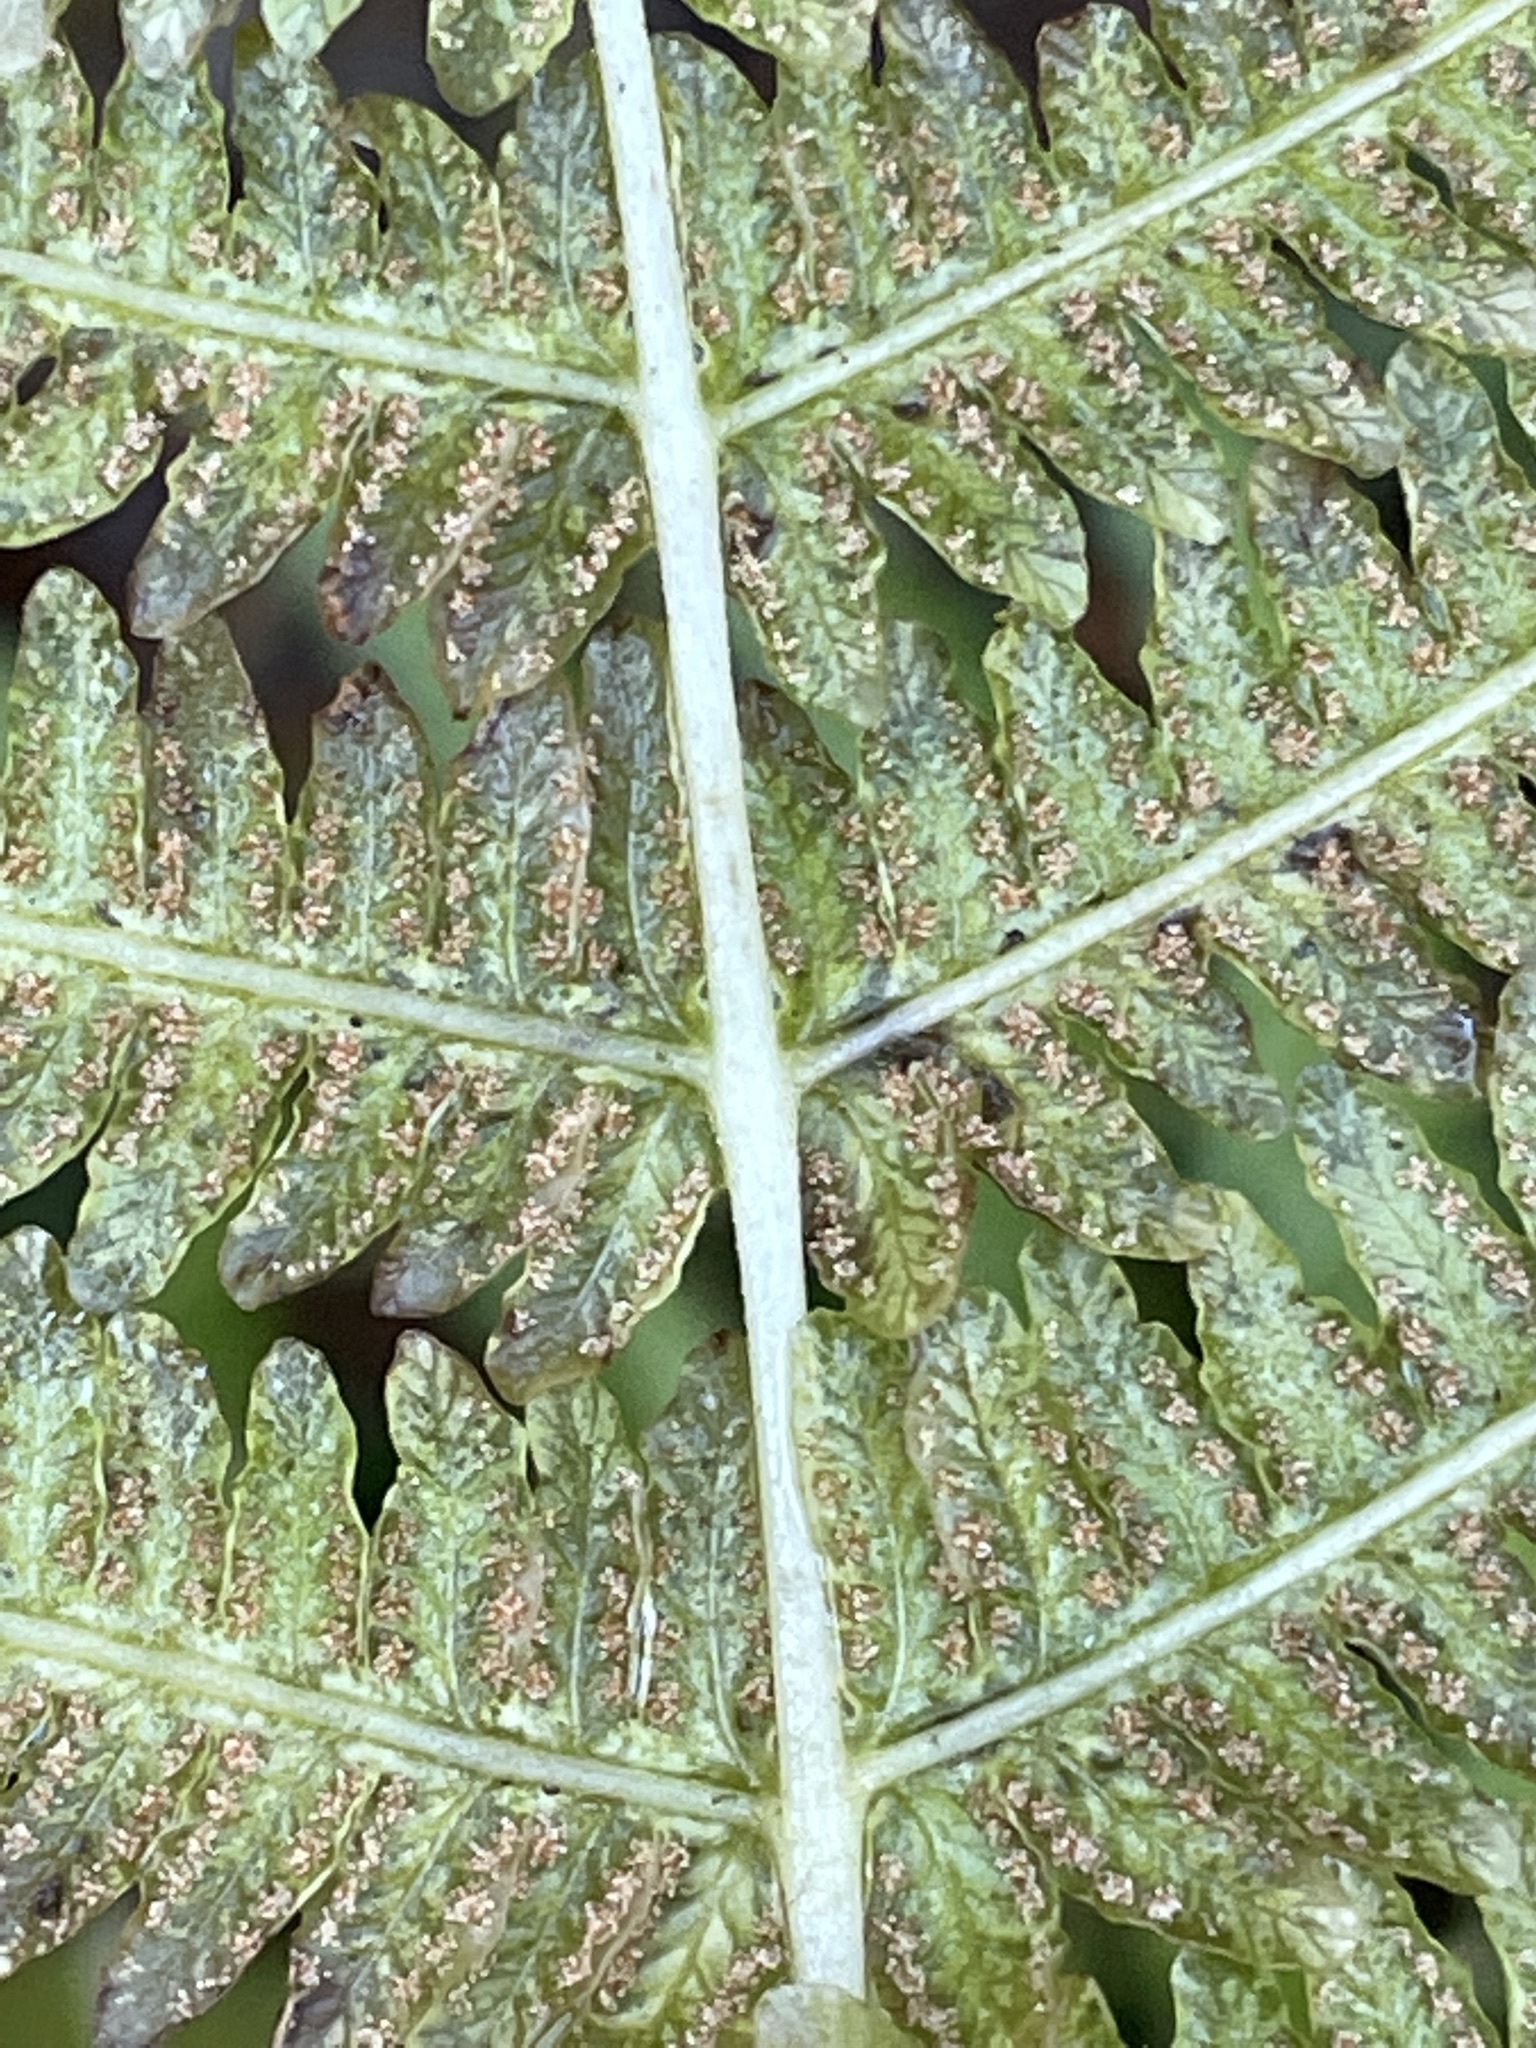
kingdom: Plantae
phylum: Tracheophyta
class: Polypodiopsida
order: Polypodiales
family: Thelypteridaceae
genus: Oreopteris
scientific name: Oreopteris limbosperma
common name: Lemon-scented fern
